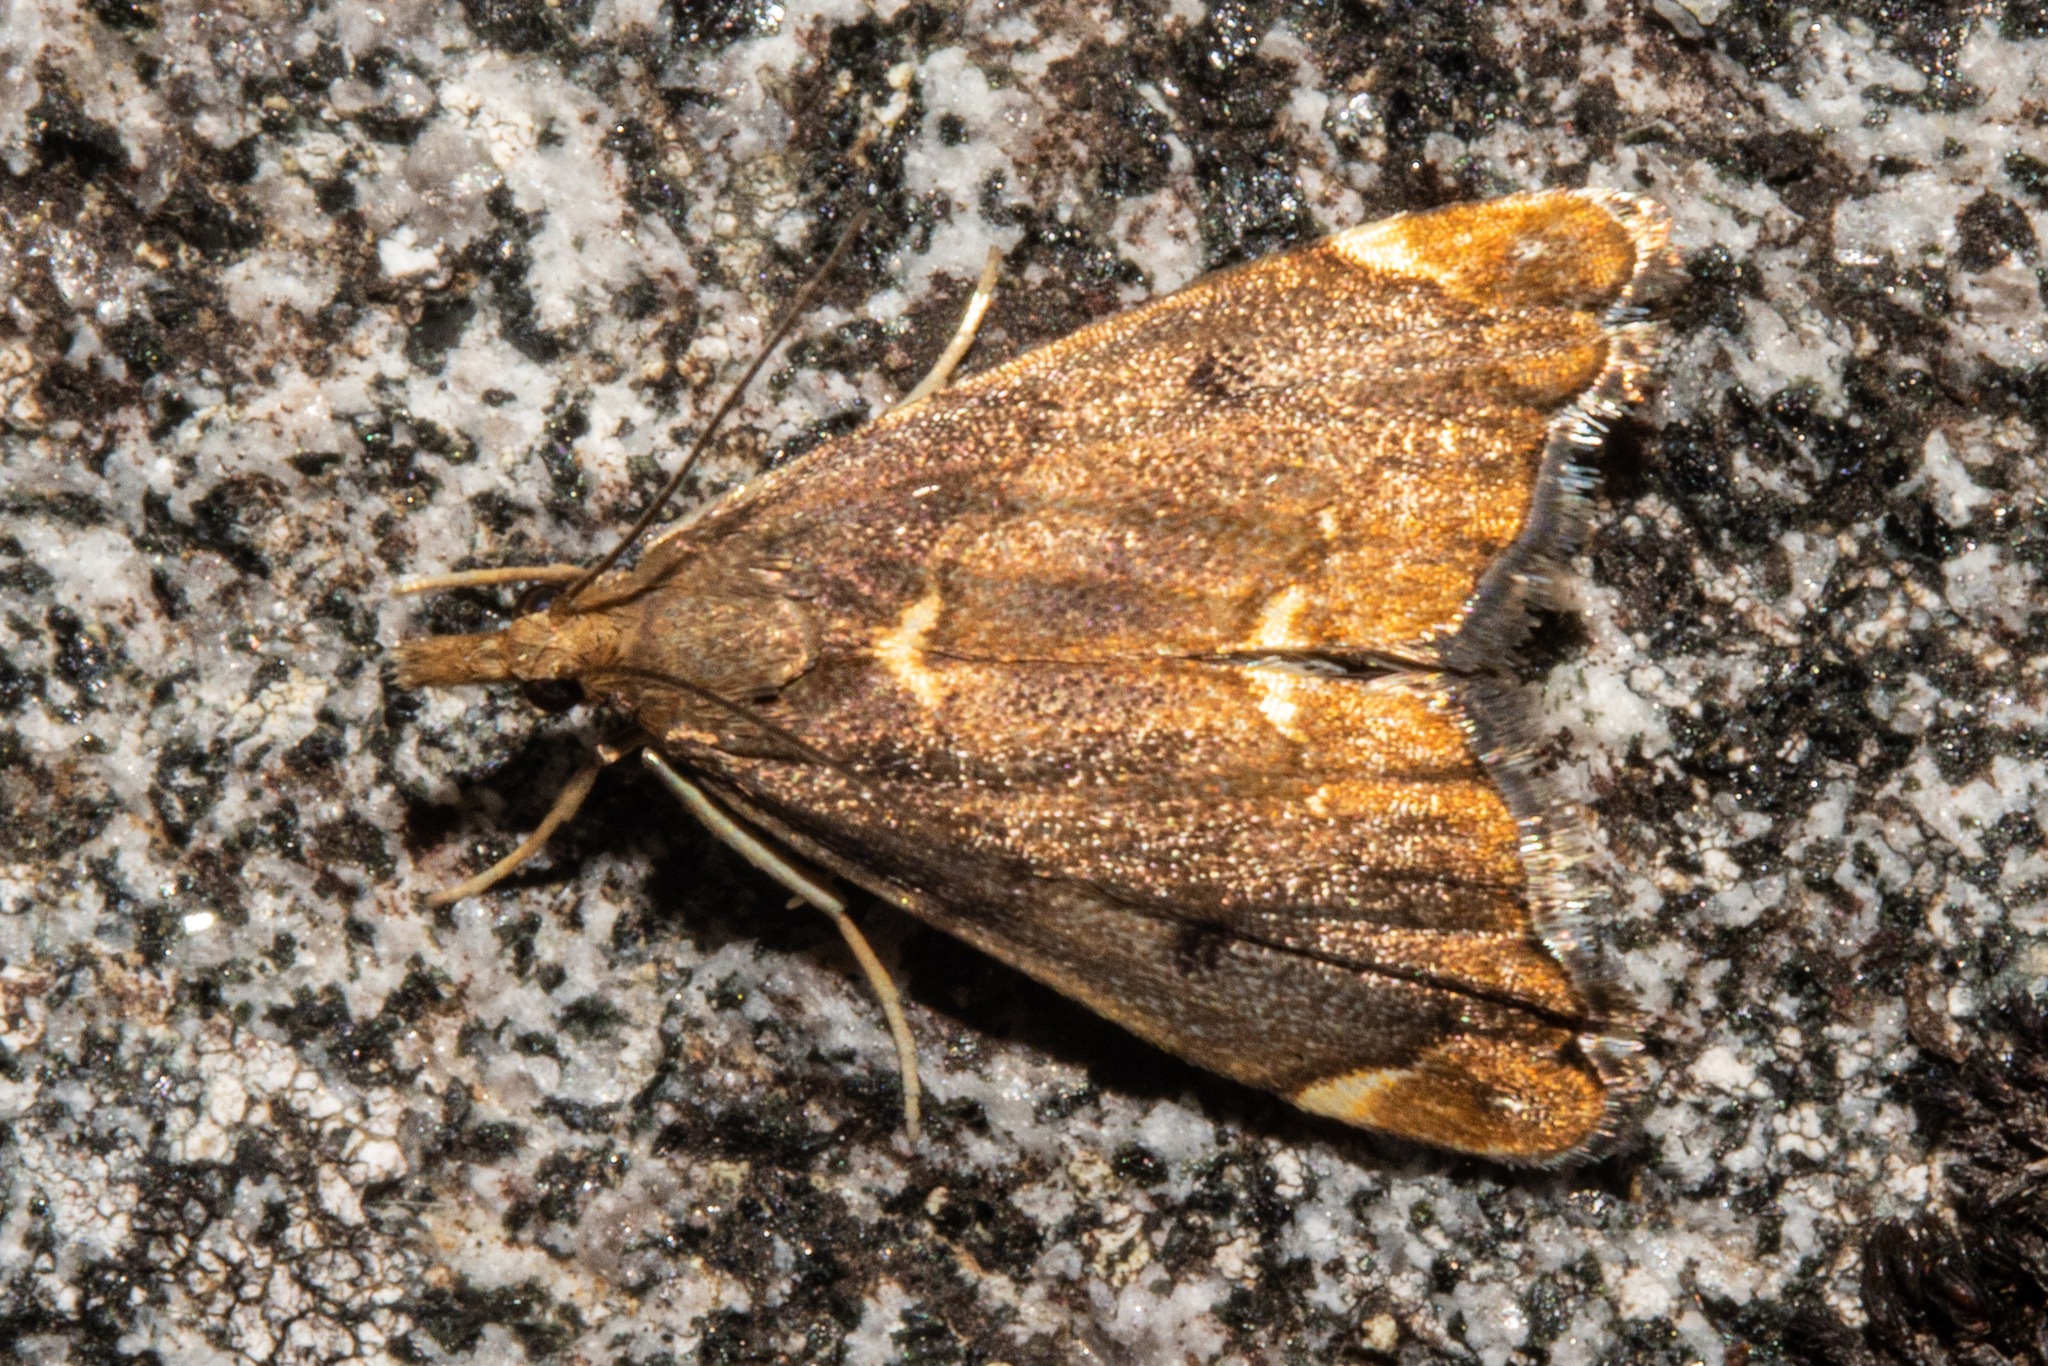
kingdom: Animalia
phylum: Arthropoda
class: Insecta
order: Lepidoptera
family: Crambidae
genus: Glaucocharis
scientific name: Glaucocharis pyrsophanes
